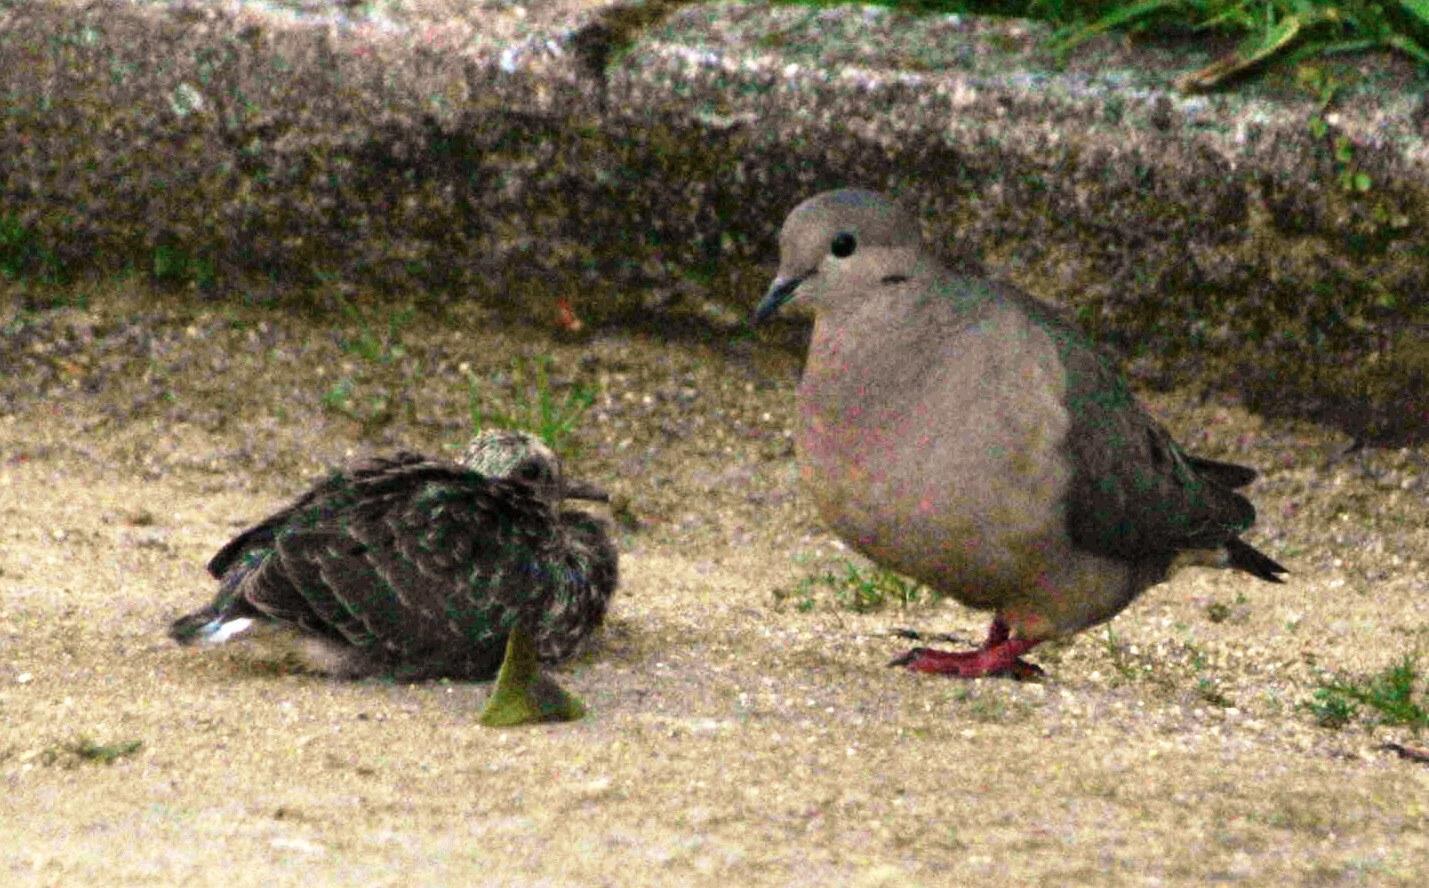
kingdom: Animalia
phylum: Chordata
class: Aves
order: Columbiformes
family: Columbidae
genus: Zenaida
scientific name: Zenaida auriculata
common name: Eared dove
